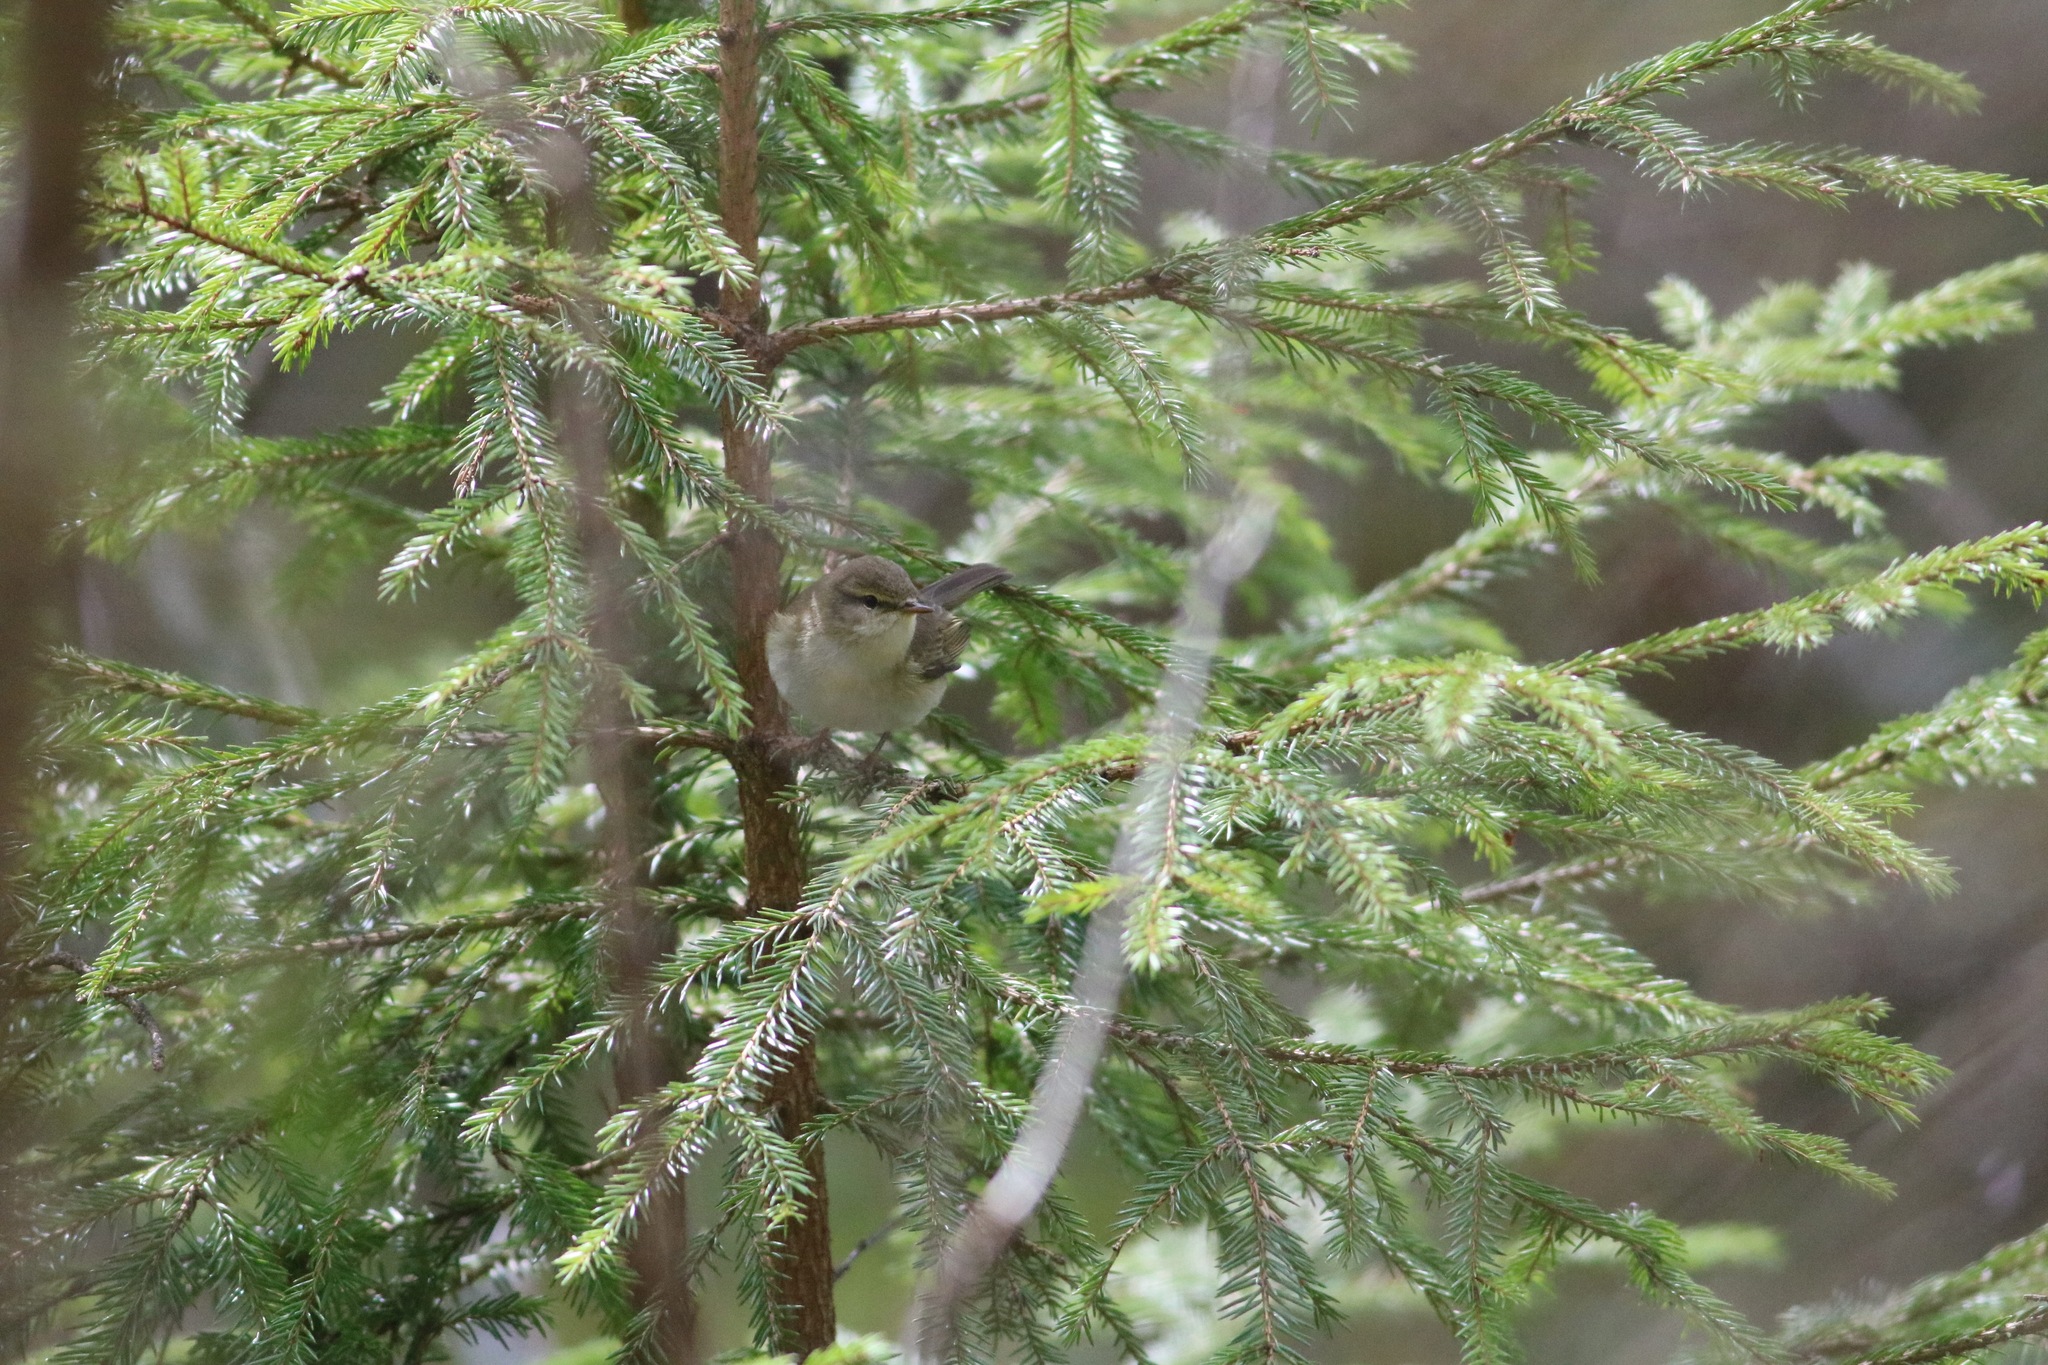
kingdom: Animalia
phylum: Chordata
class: Aves
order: Passeriformes
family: Phylloscopidae
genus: Phylloscopus
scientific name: Phylloscopus trochilus
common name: Willow warbler
